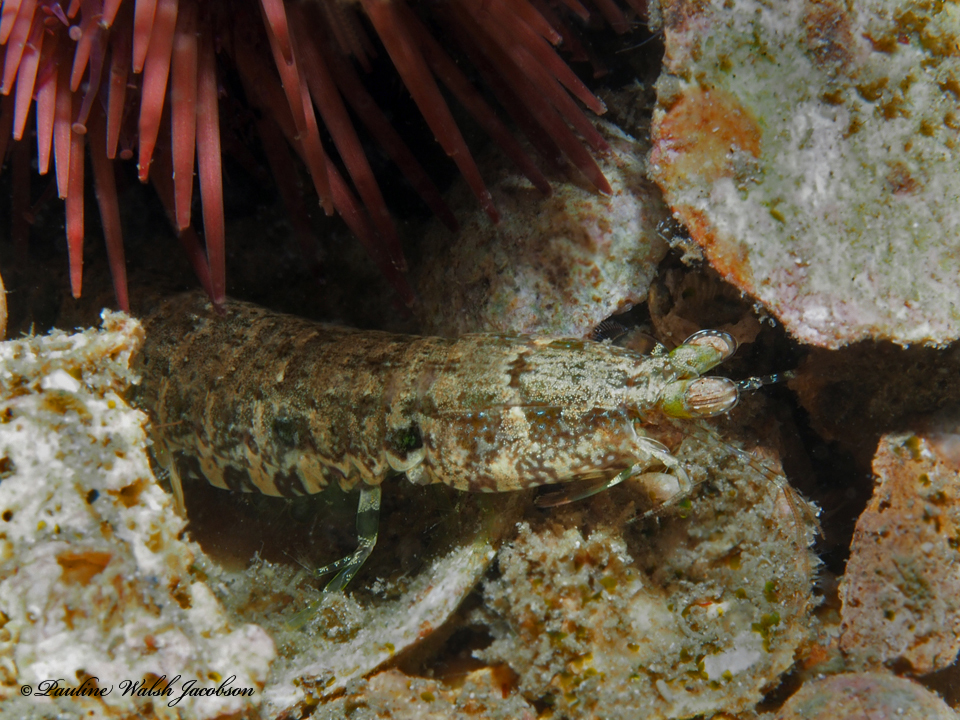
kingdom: Animalia
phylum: Arthropoda
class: Malacostraca
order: Stomatopoda
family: Pseudosquillidae
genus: Pseudosquilla
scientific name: Pseudosquilla ciliata
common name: Ciliated false squilla
